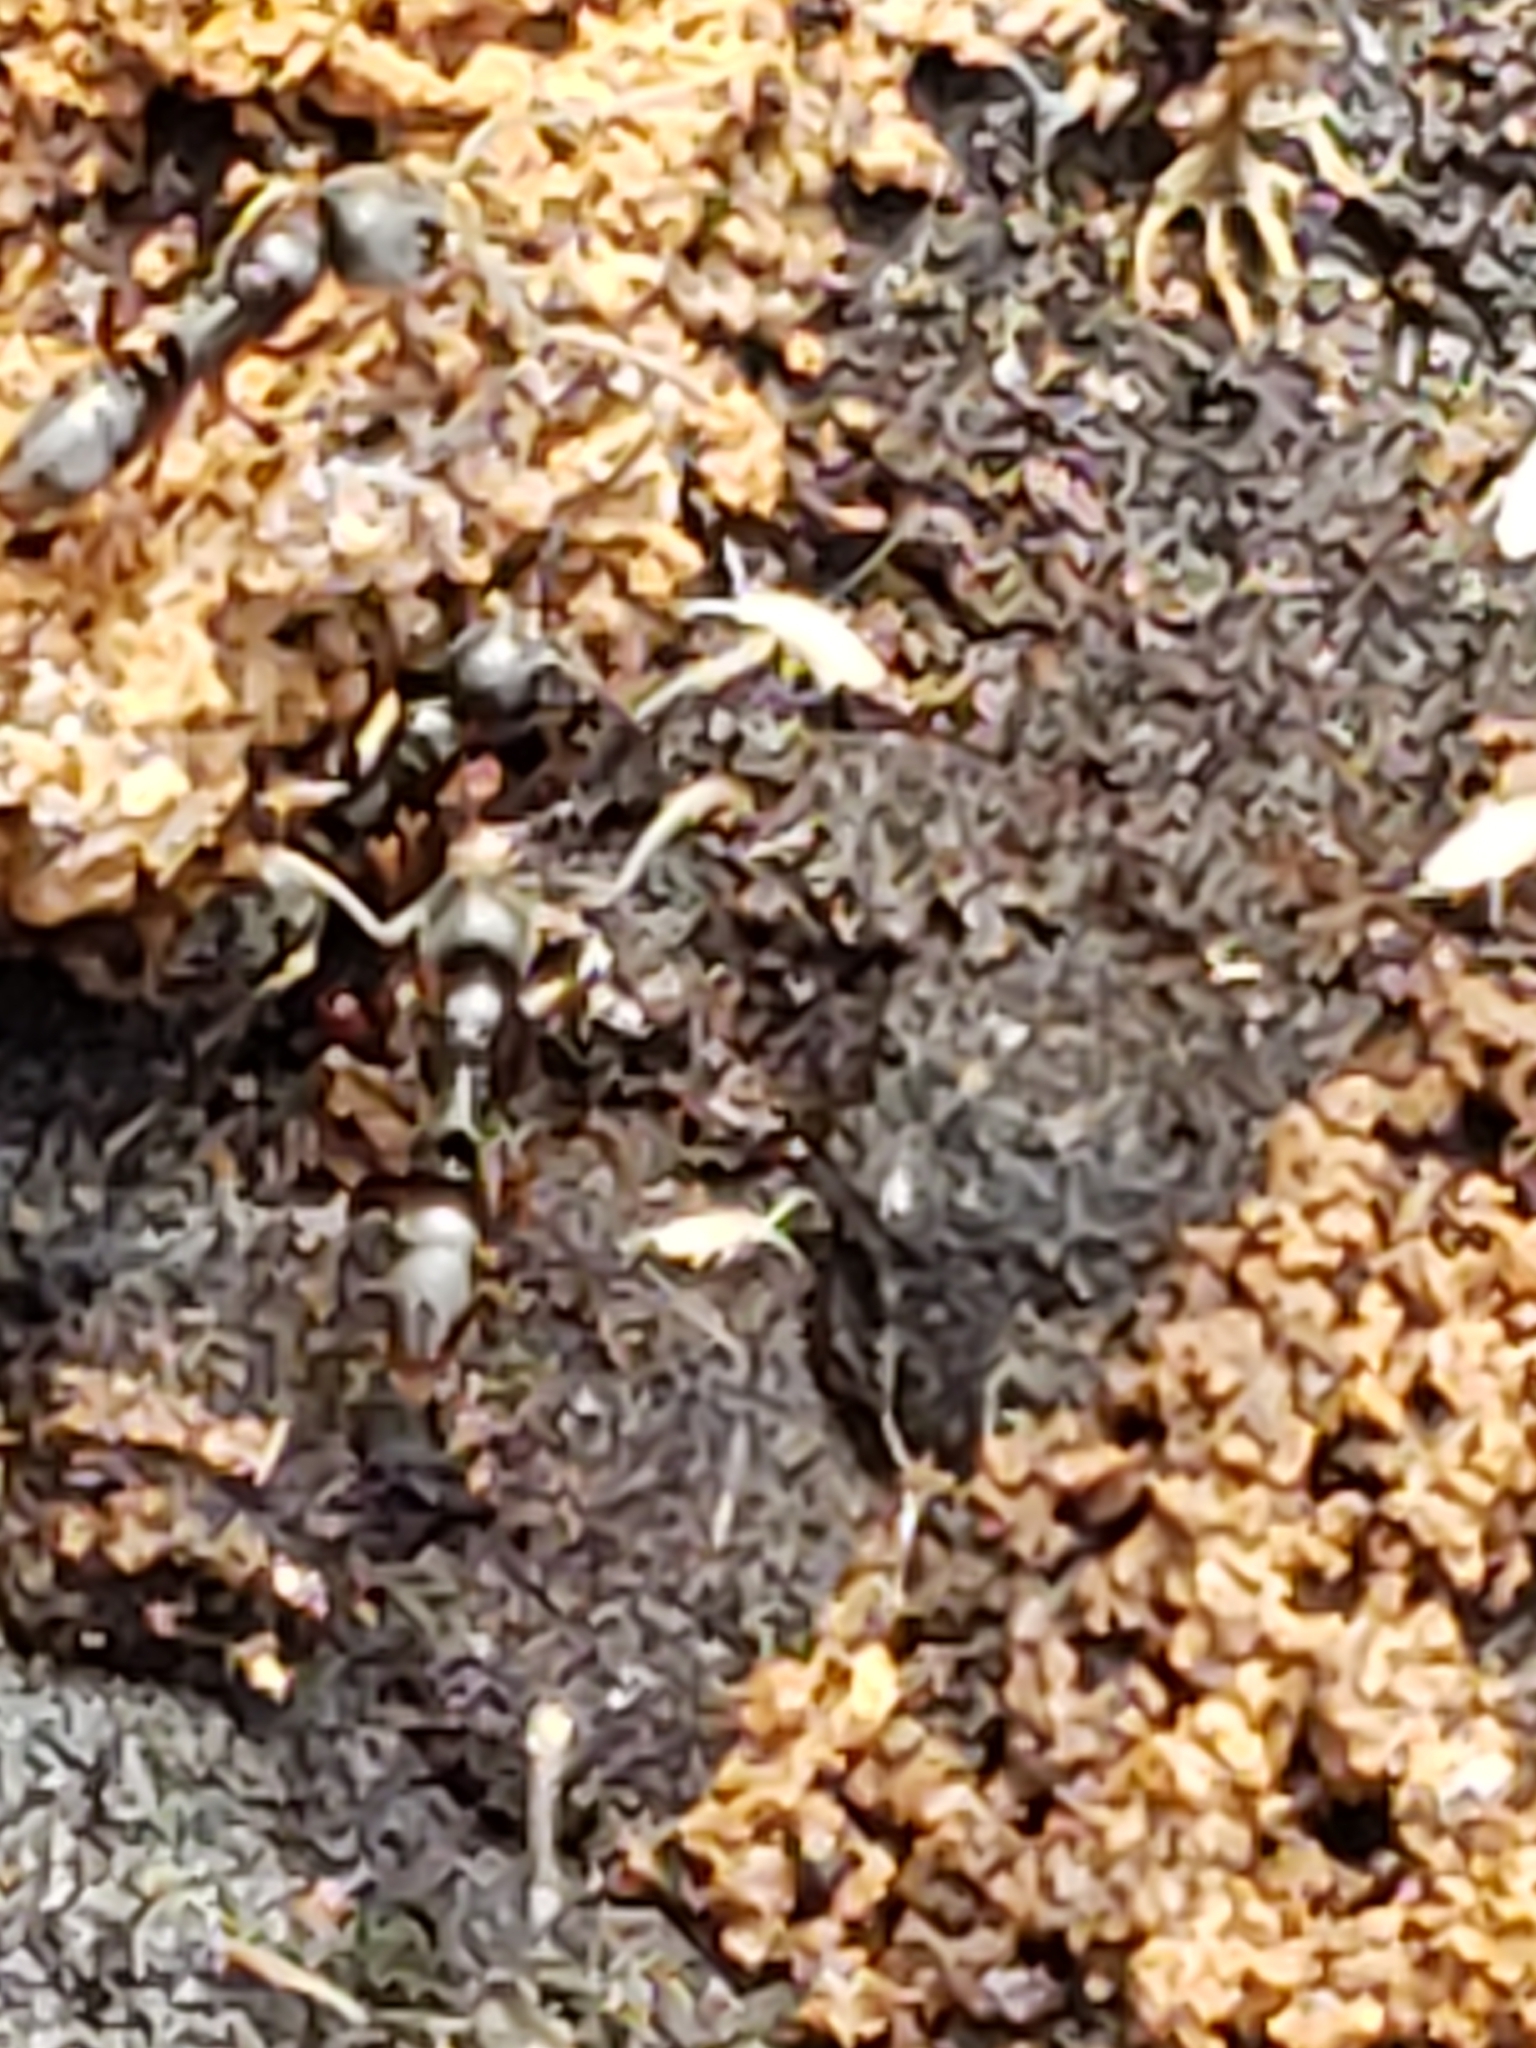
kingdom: Animalia
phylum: Arthropoda
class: Insecta
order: Hymenoptera
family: Formicidae
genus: Pachycondyla
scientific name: Pachycondyla chinensis
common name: Asian needle ant
